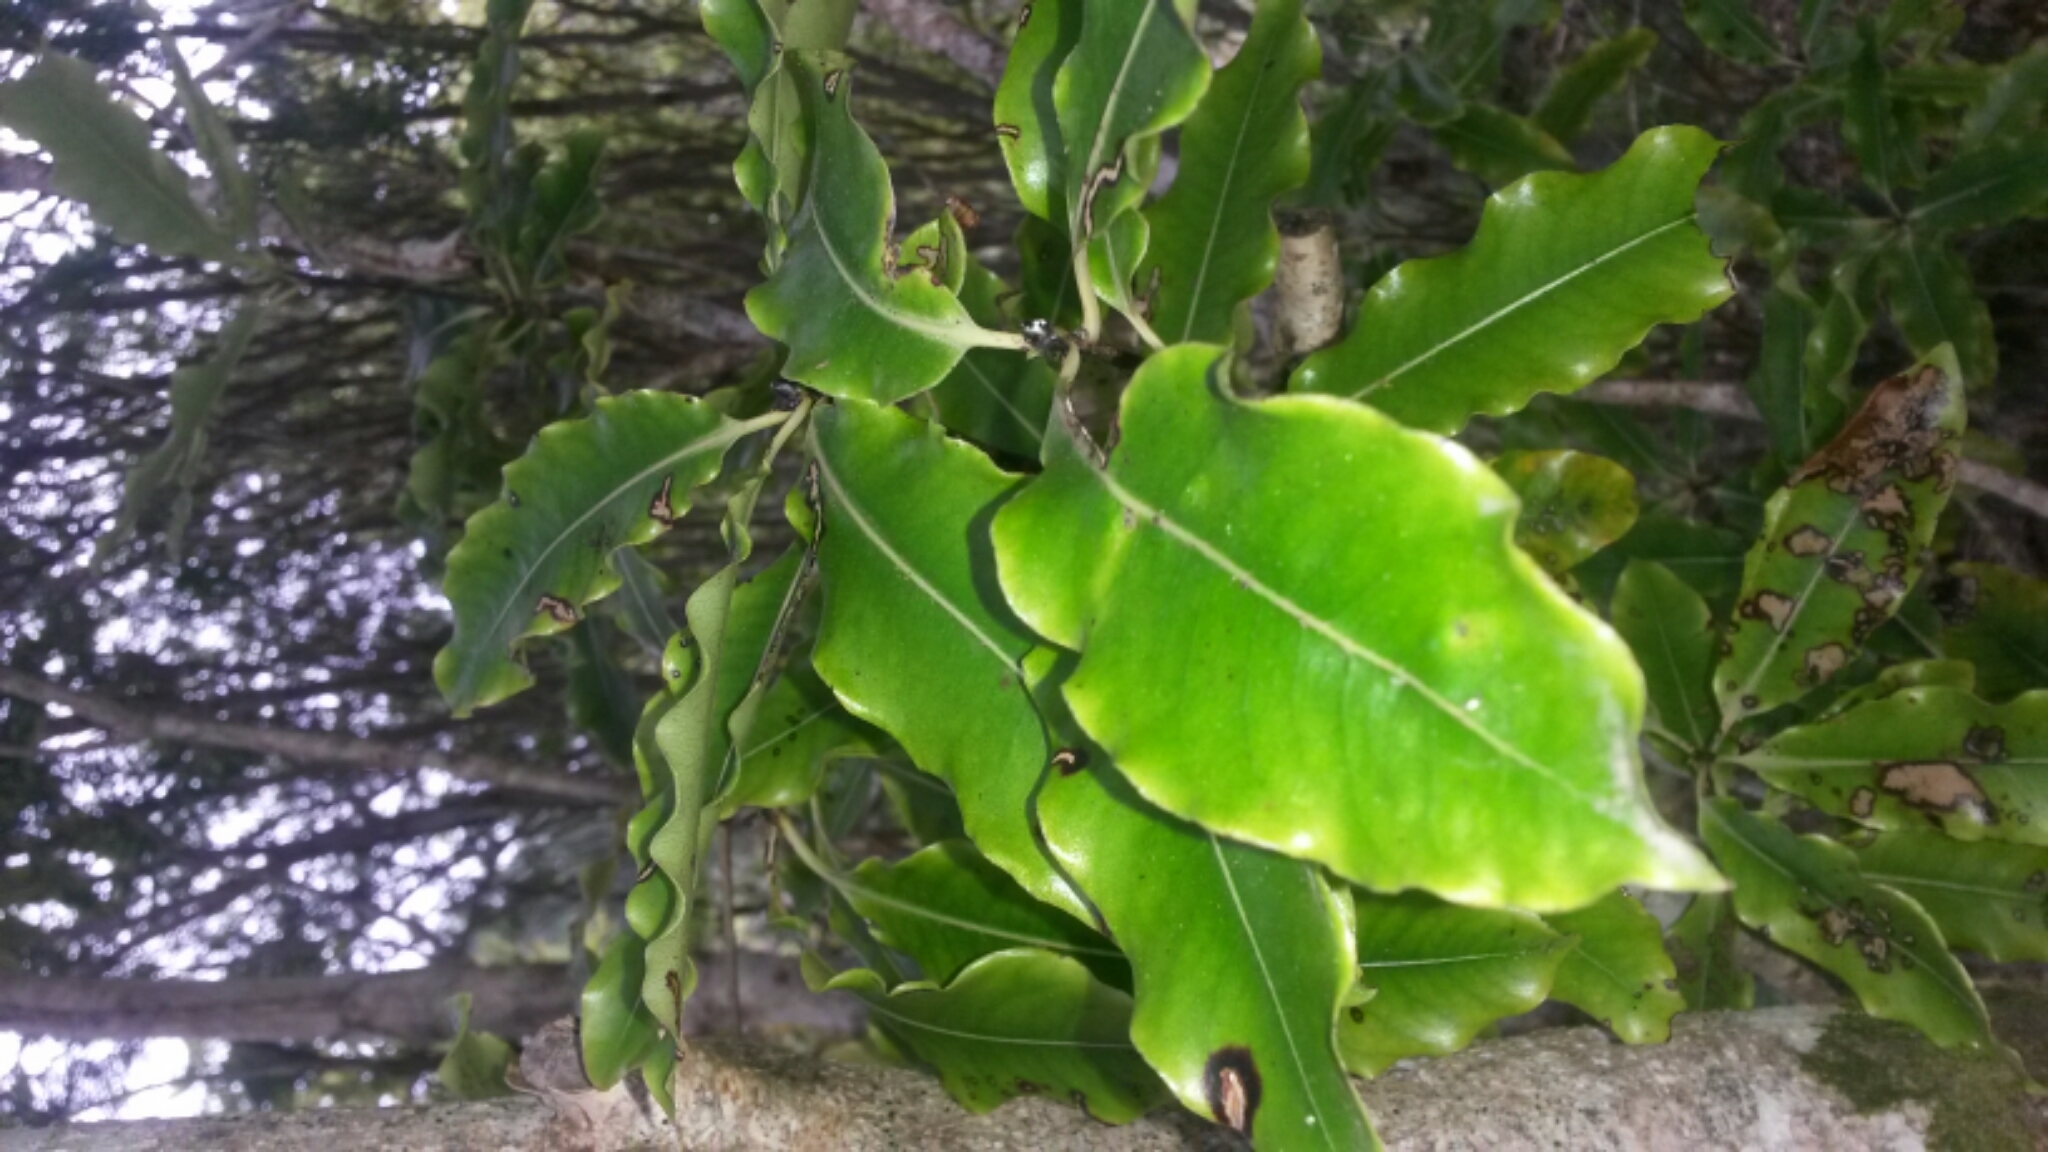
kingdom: Plantae
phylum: Tracheophyta
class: Magnoliopsida
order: Apiales
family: Pittosporaceae
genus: Pittosporum
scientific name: Pittosporum eugenioides
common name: Lemonwood
